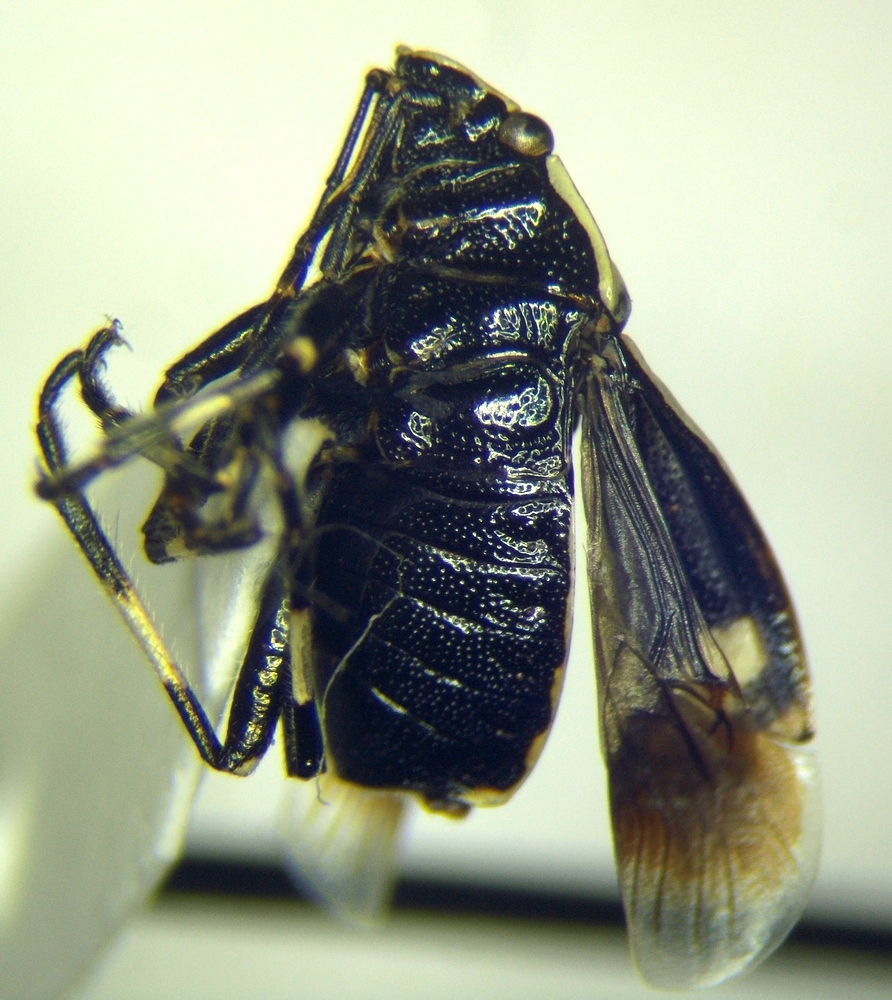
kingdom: Animalia
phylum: Arthropoda
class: Insecta
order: Hemiptera
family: Pentatomidae
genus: Eurydema
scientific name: Eurydema oleracea
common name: Cabbage bug
